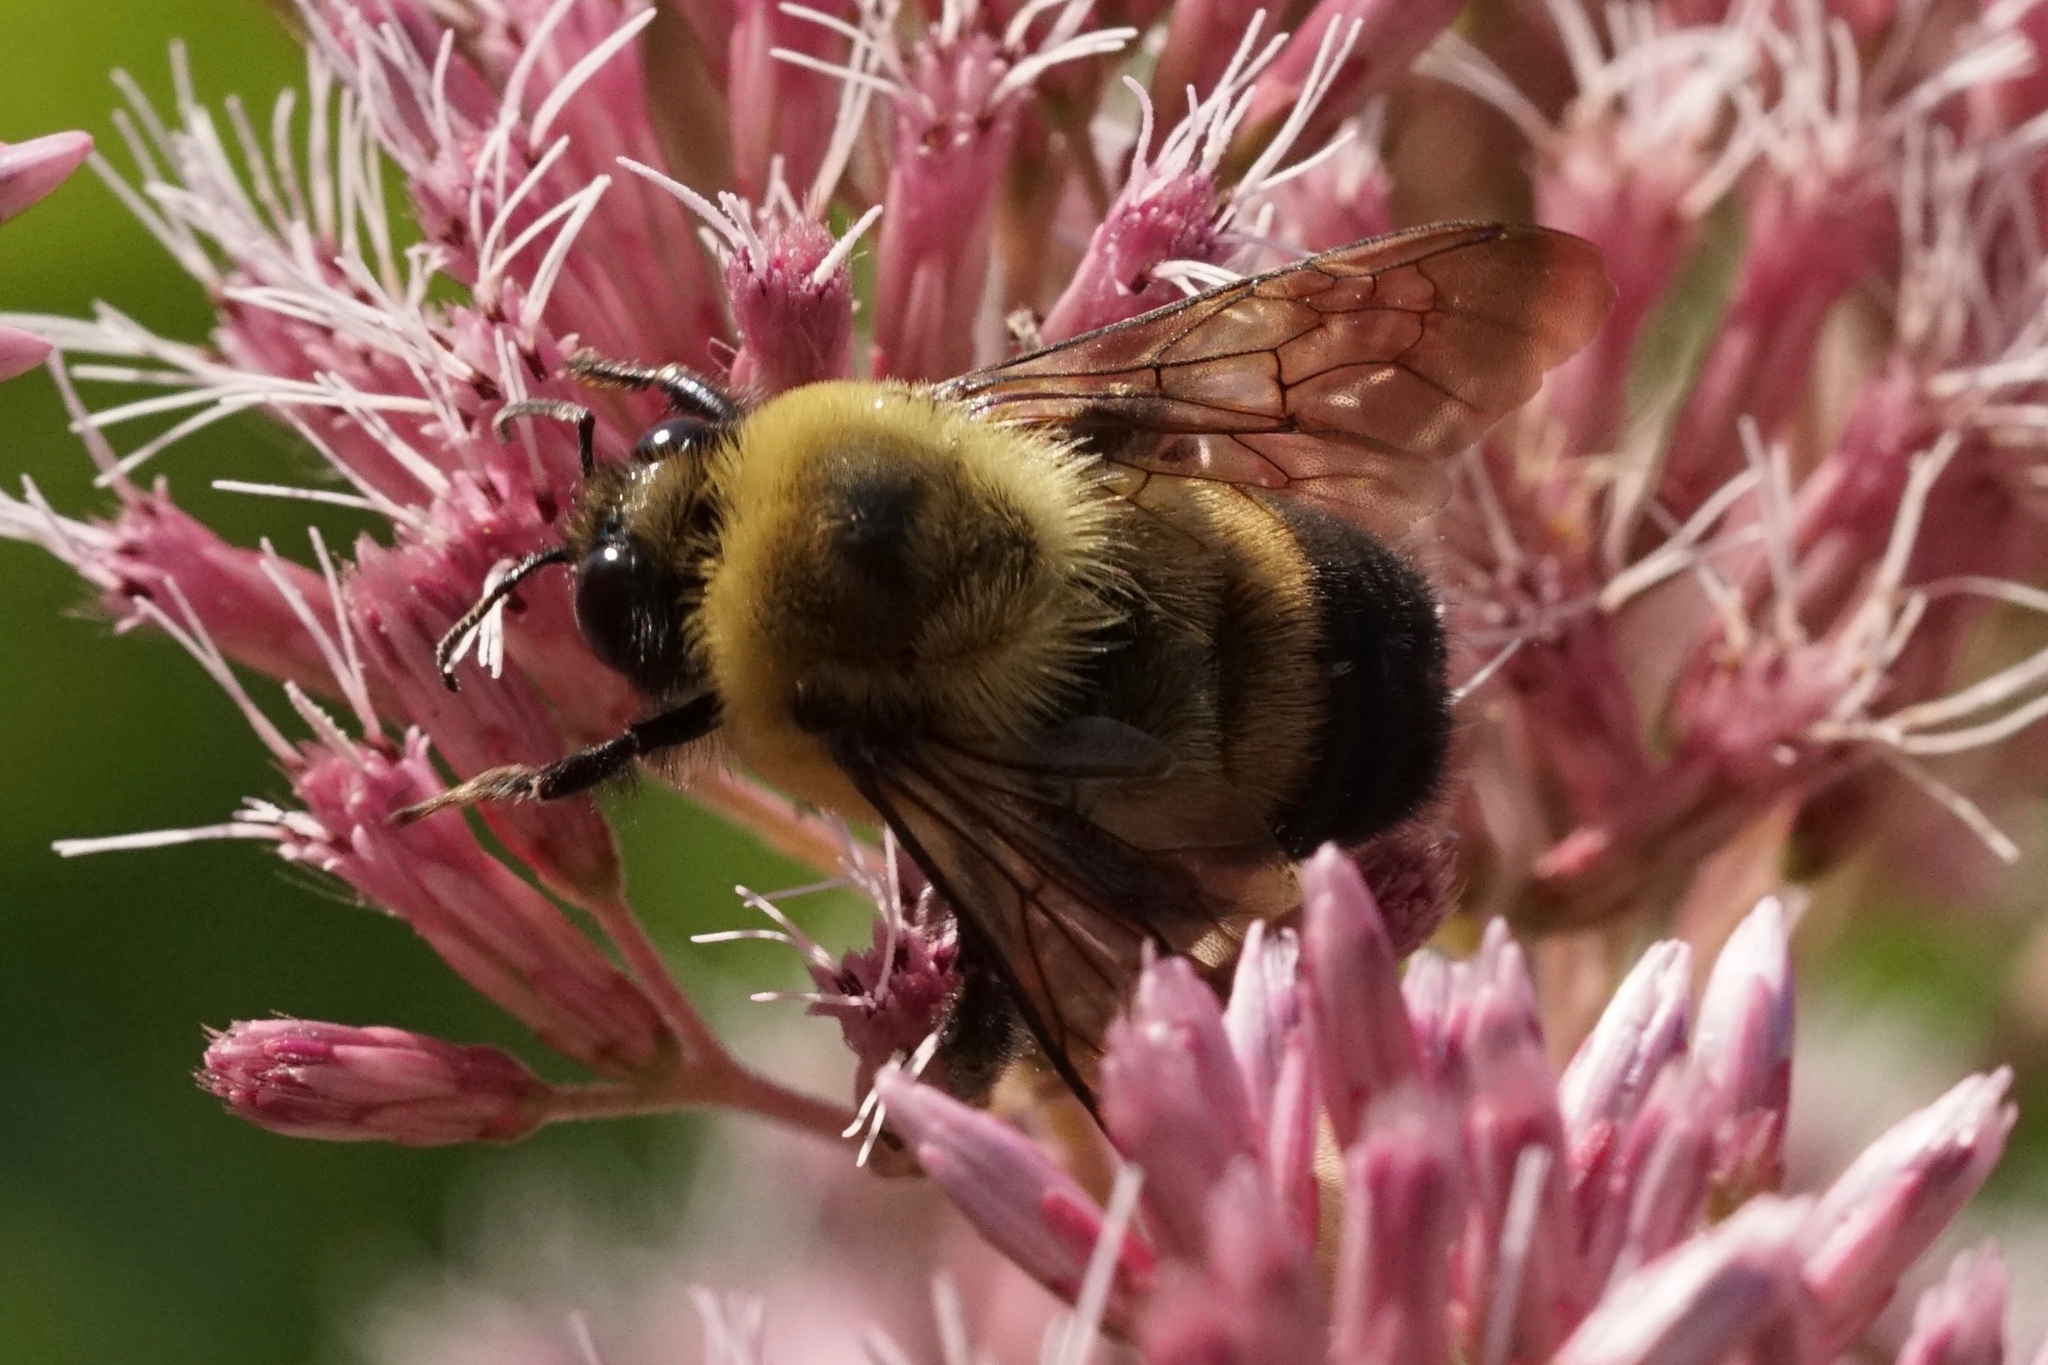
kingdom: Animalia
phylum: Arthropoda
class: Insecta
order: Hymenoptera
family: Apidae
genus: Bombus
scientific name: Bombus griseocollis
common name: Brown-belted bumble bee
